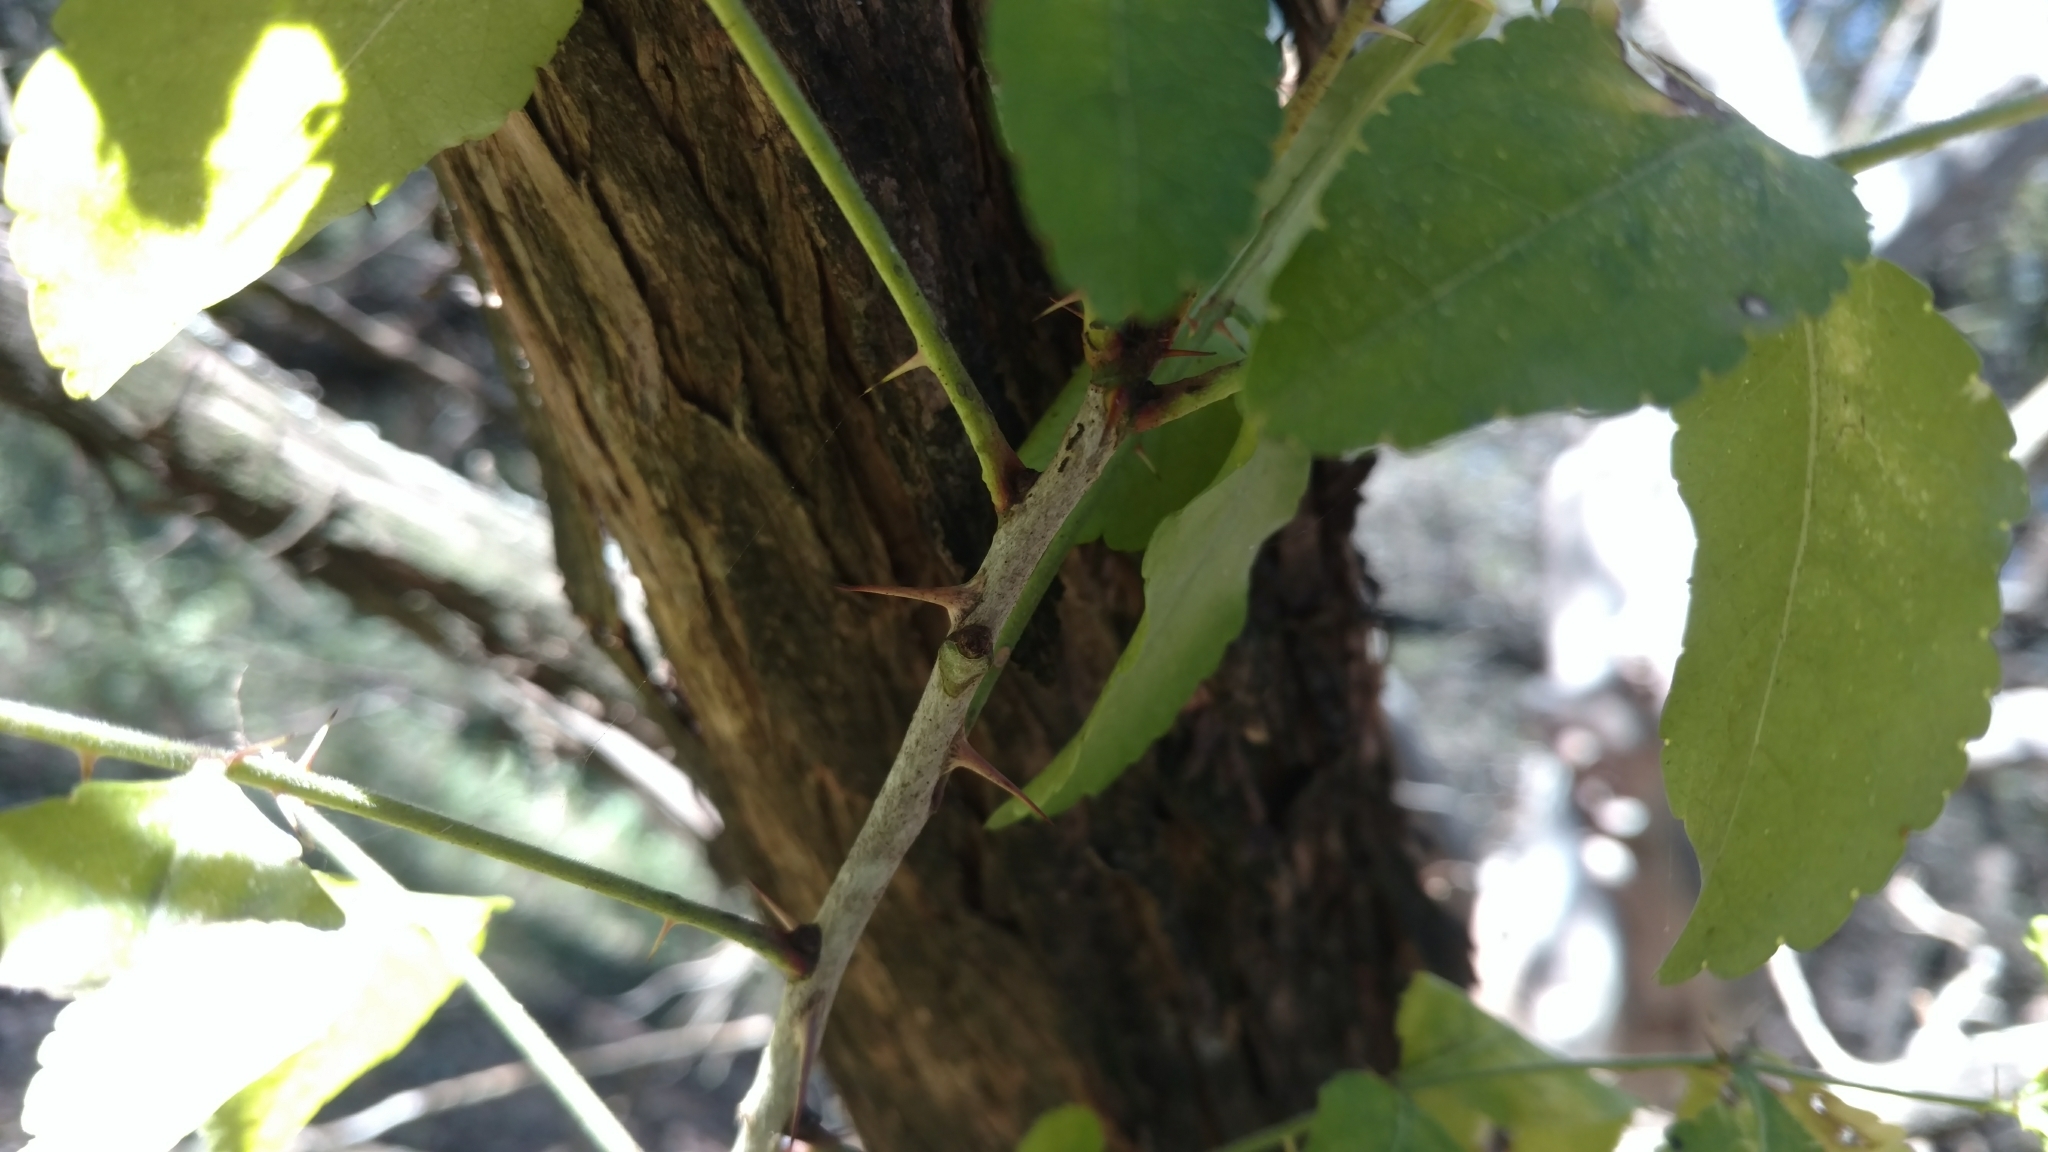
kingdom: Plantae
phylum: Tracheophyta
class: Magnoliopsida
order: Sapindales
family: Rutaceae
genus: Zanthoxylum
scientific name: Zanthoxylum clava-herculis
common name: Hercules'-club
